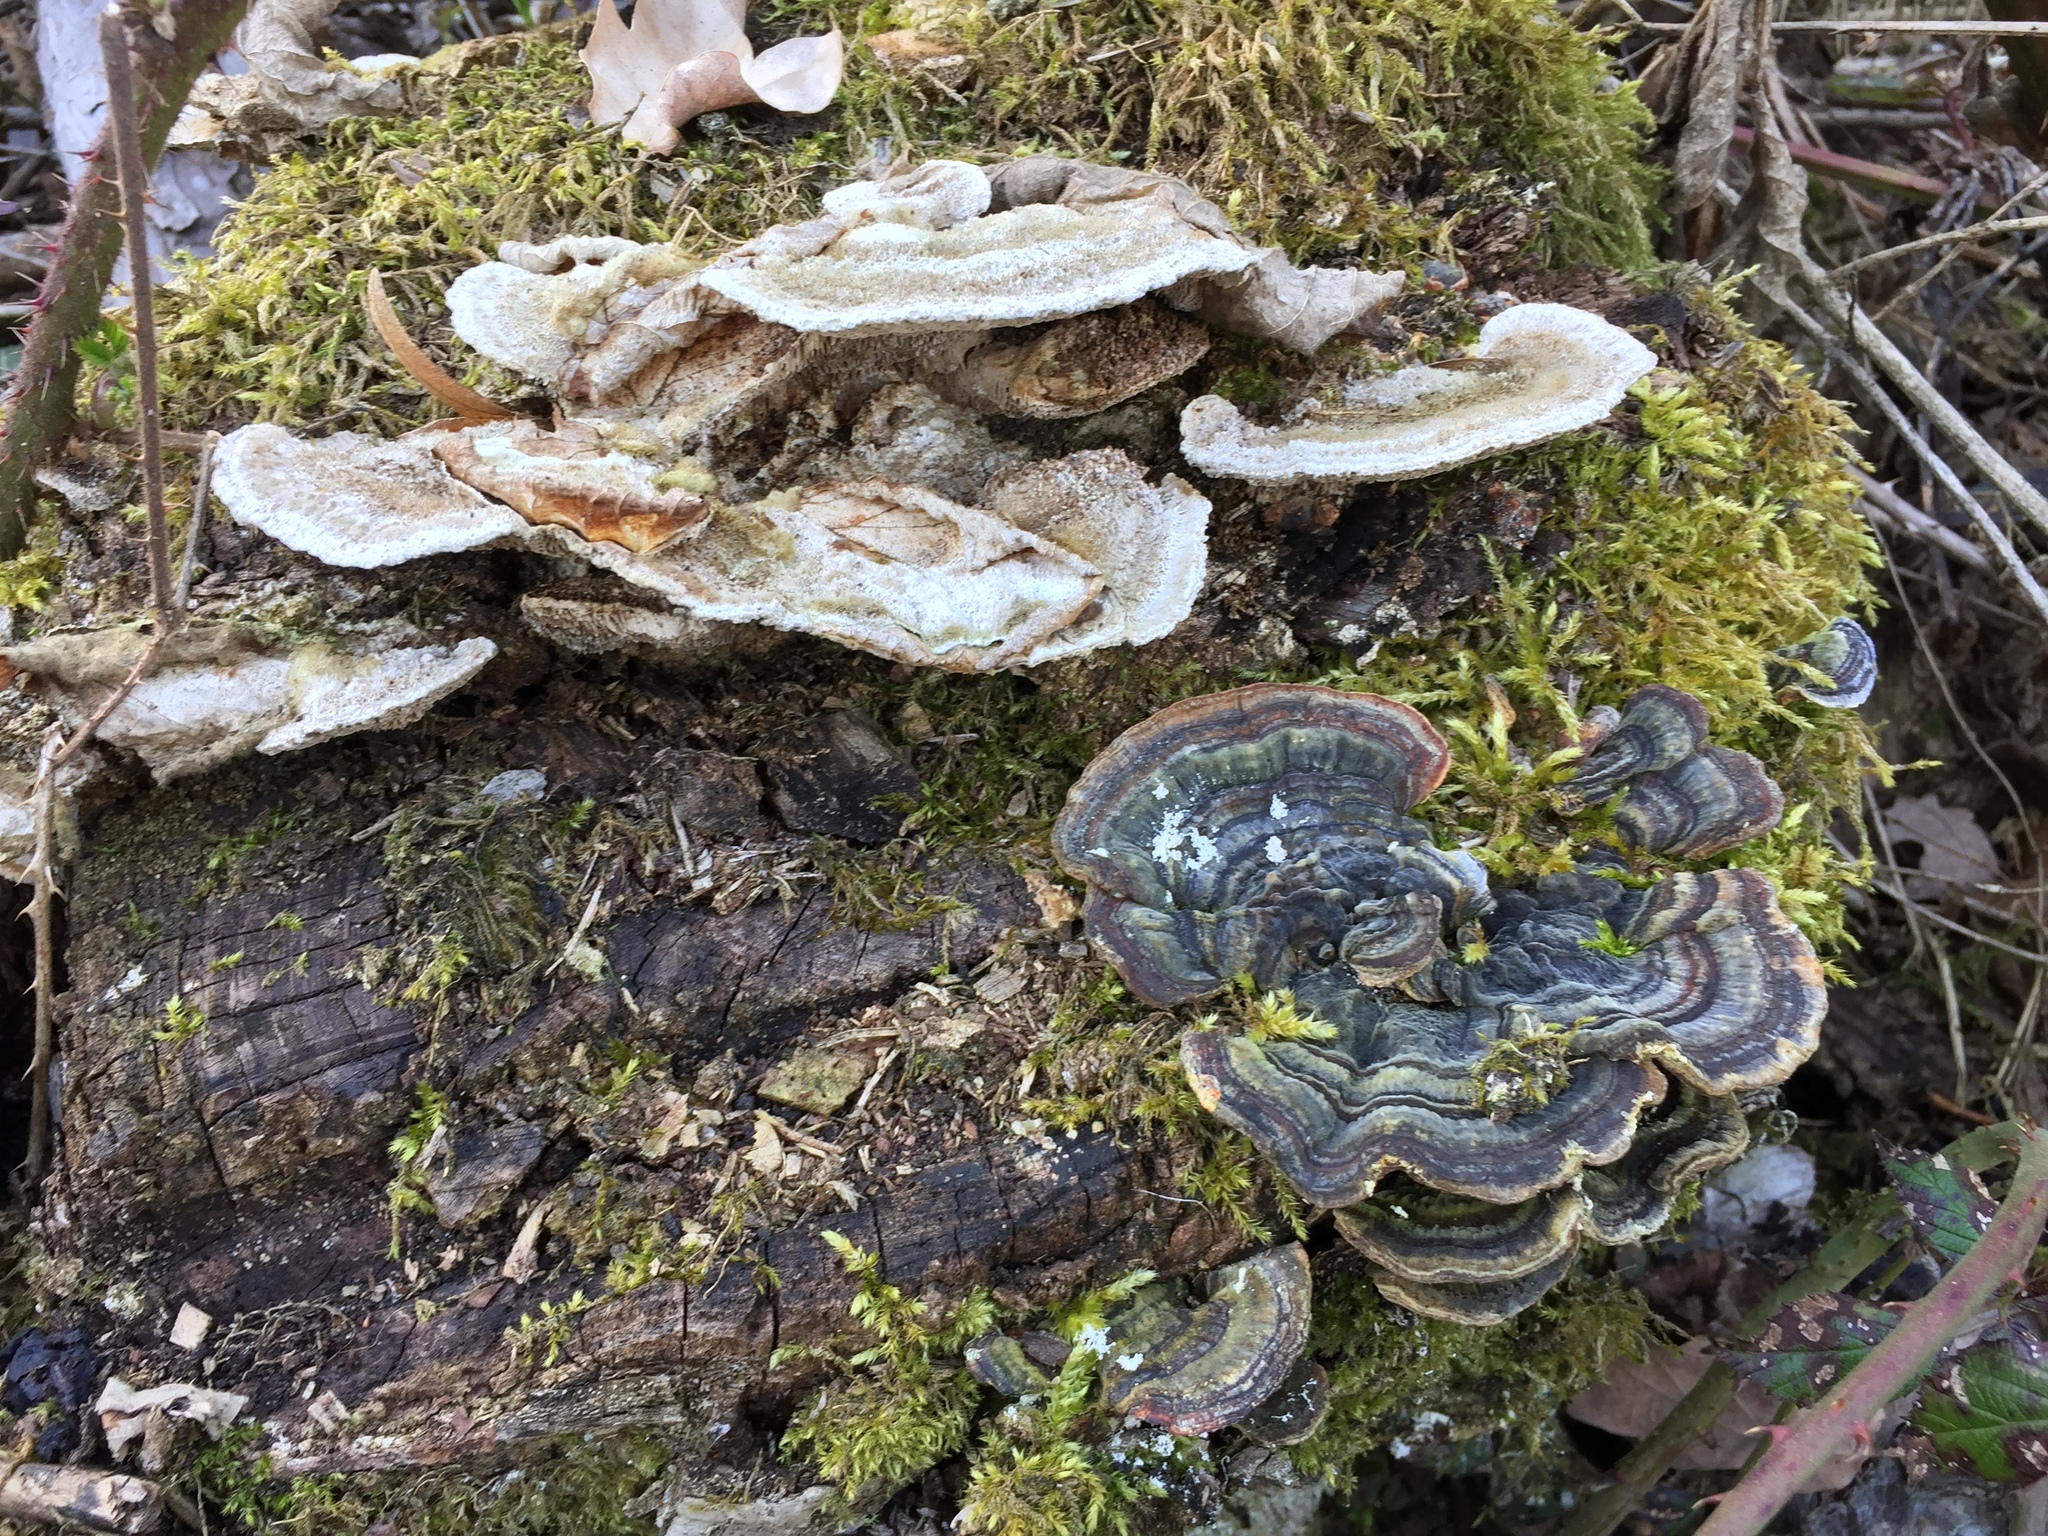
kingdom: Fungi
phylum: Basidiomycota
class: Agaricomycetes
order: Polyporales
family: Polyporaceae
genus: Trametes
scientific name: Trametes versicolor
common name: Turkeytail
